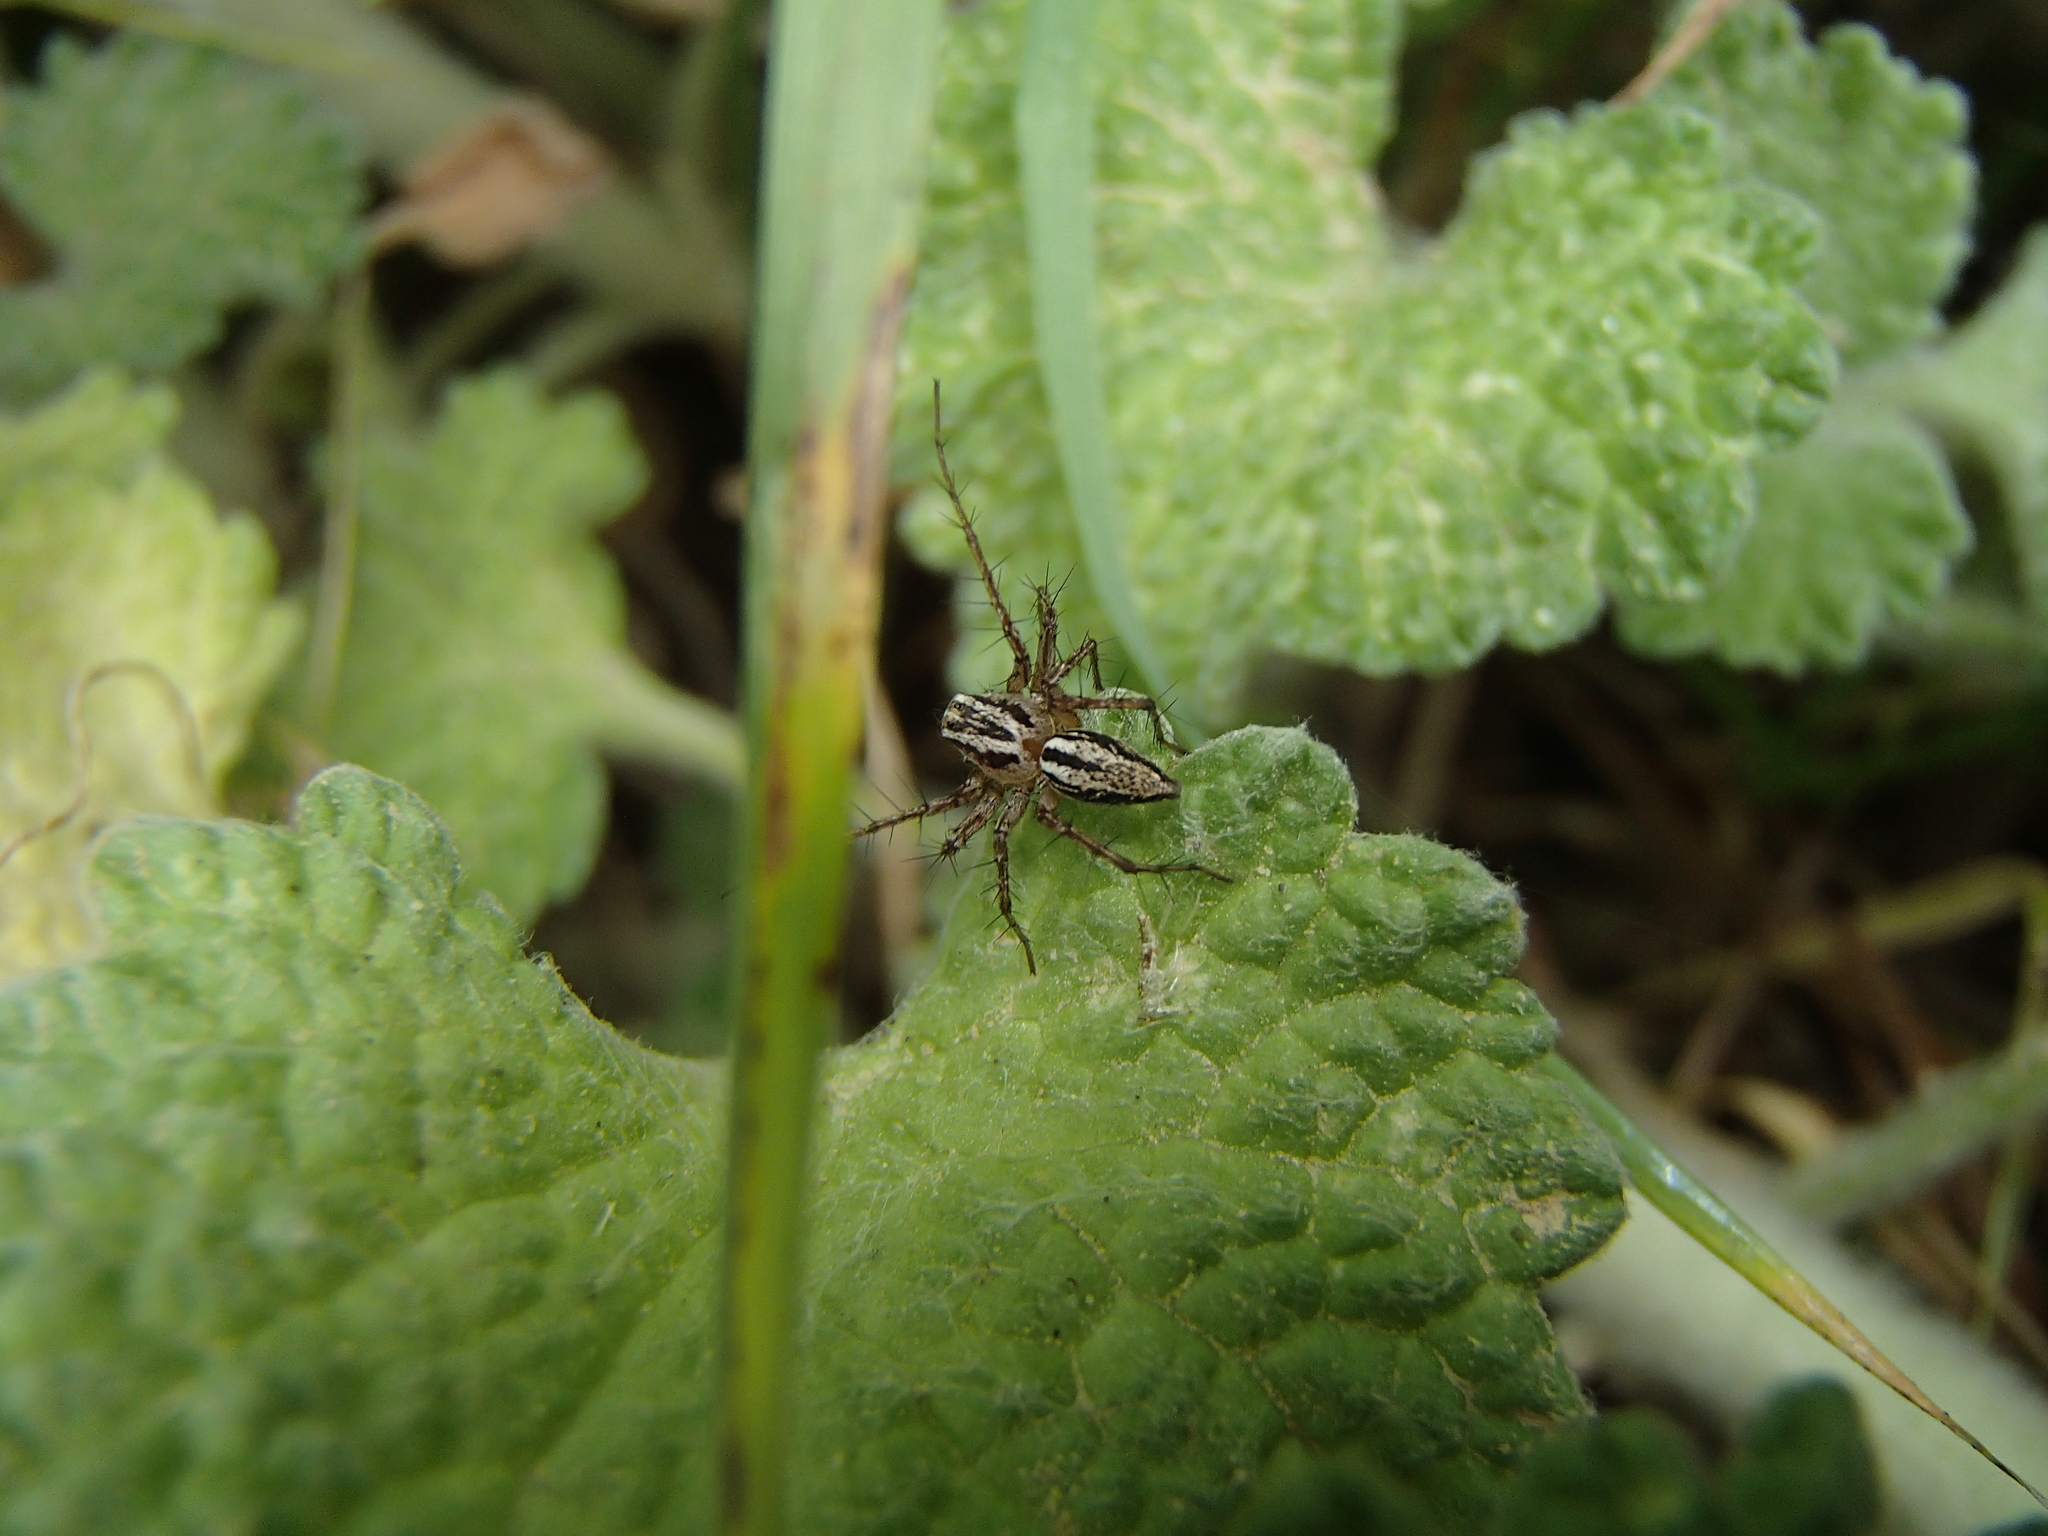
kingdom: Animalia
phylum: Arthropoda
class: Arachnida
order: Araneae
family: Oxyopidae
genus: Oxyopes
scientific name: Oxyopes gracilipes
